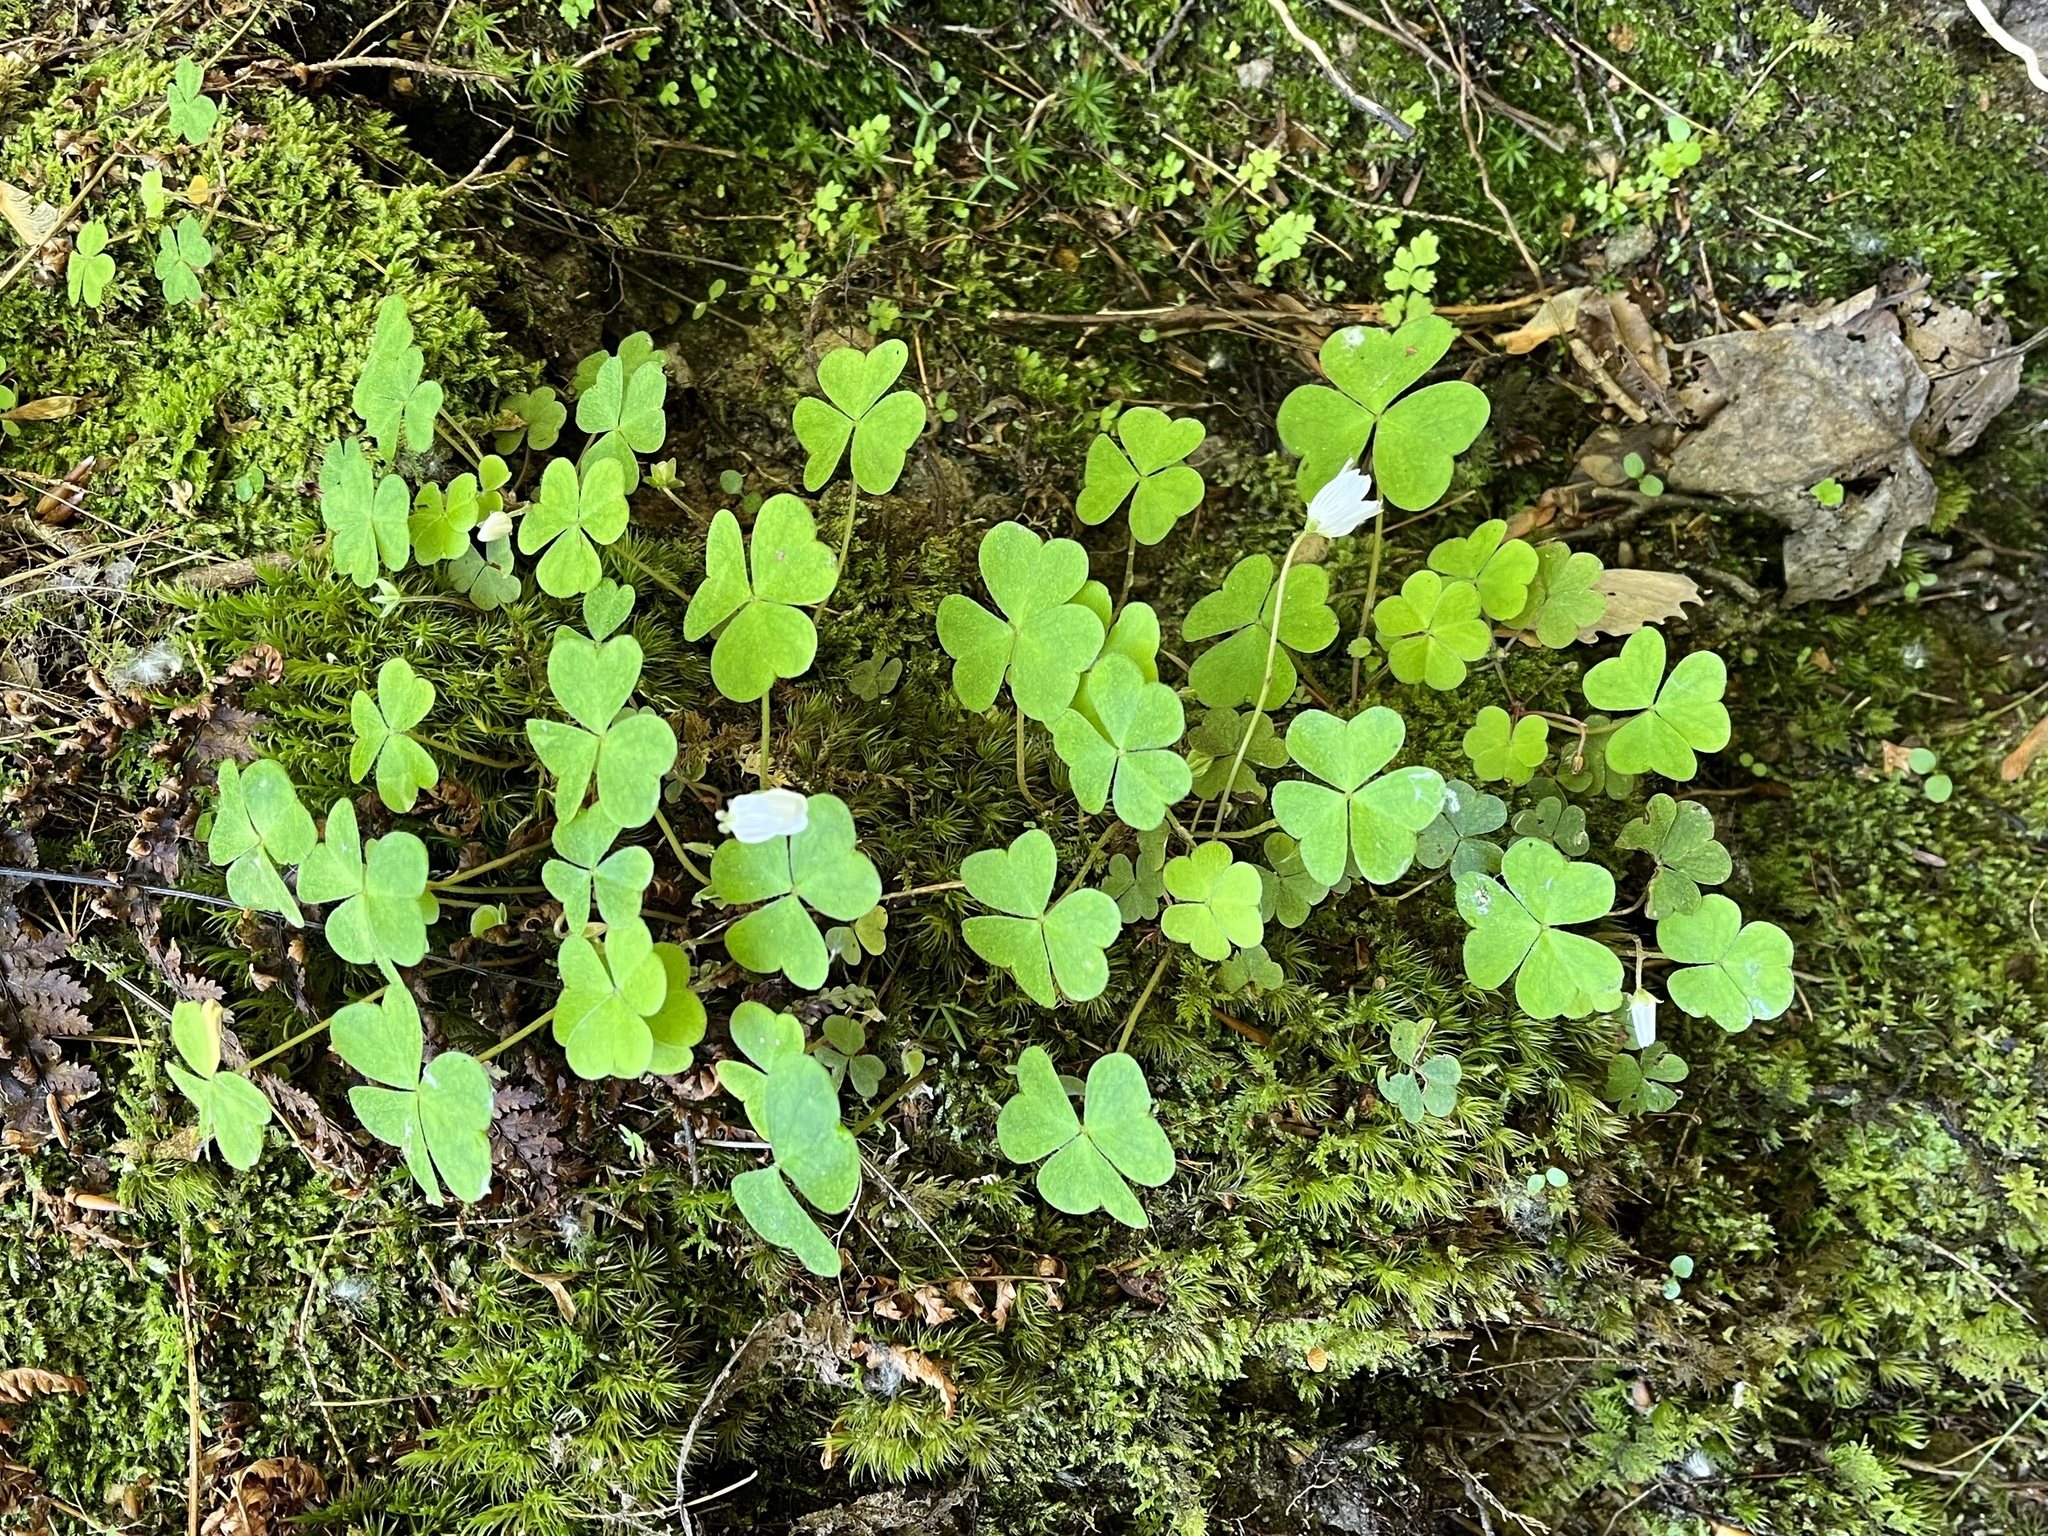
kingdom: Plantae
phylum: Tracheophyta
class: Magnoliopsida
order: Oxalidales
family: Oxalidaceae
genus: Oxalis
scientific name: Oxalis montana
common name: American wood-sorrel
